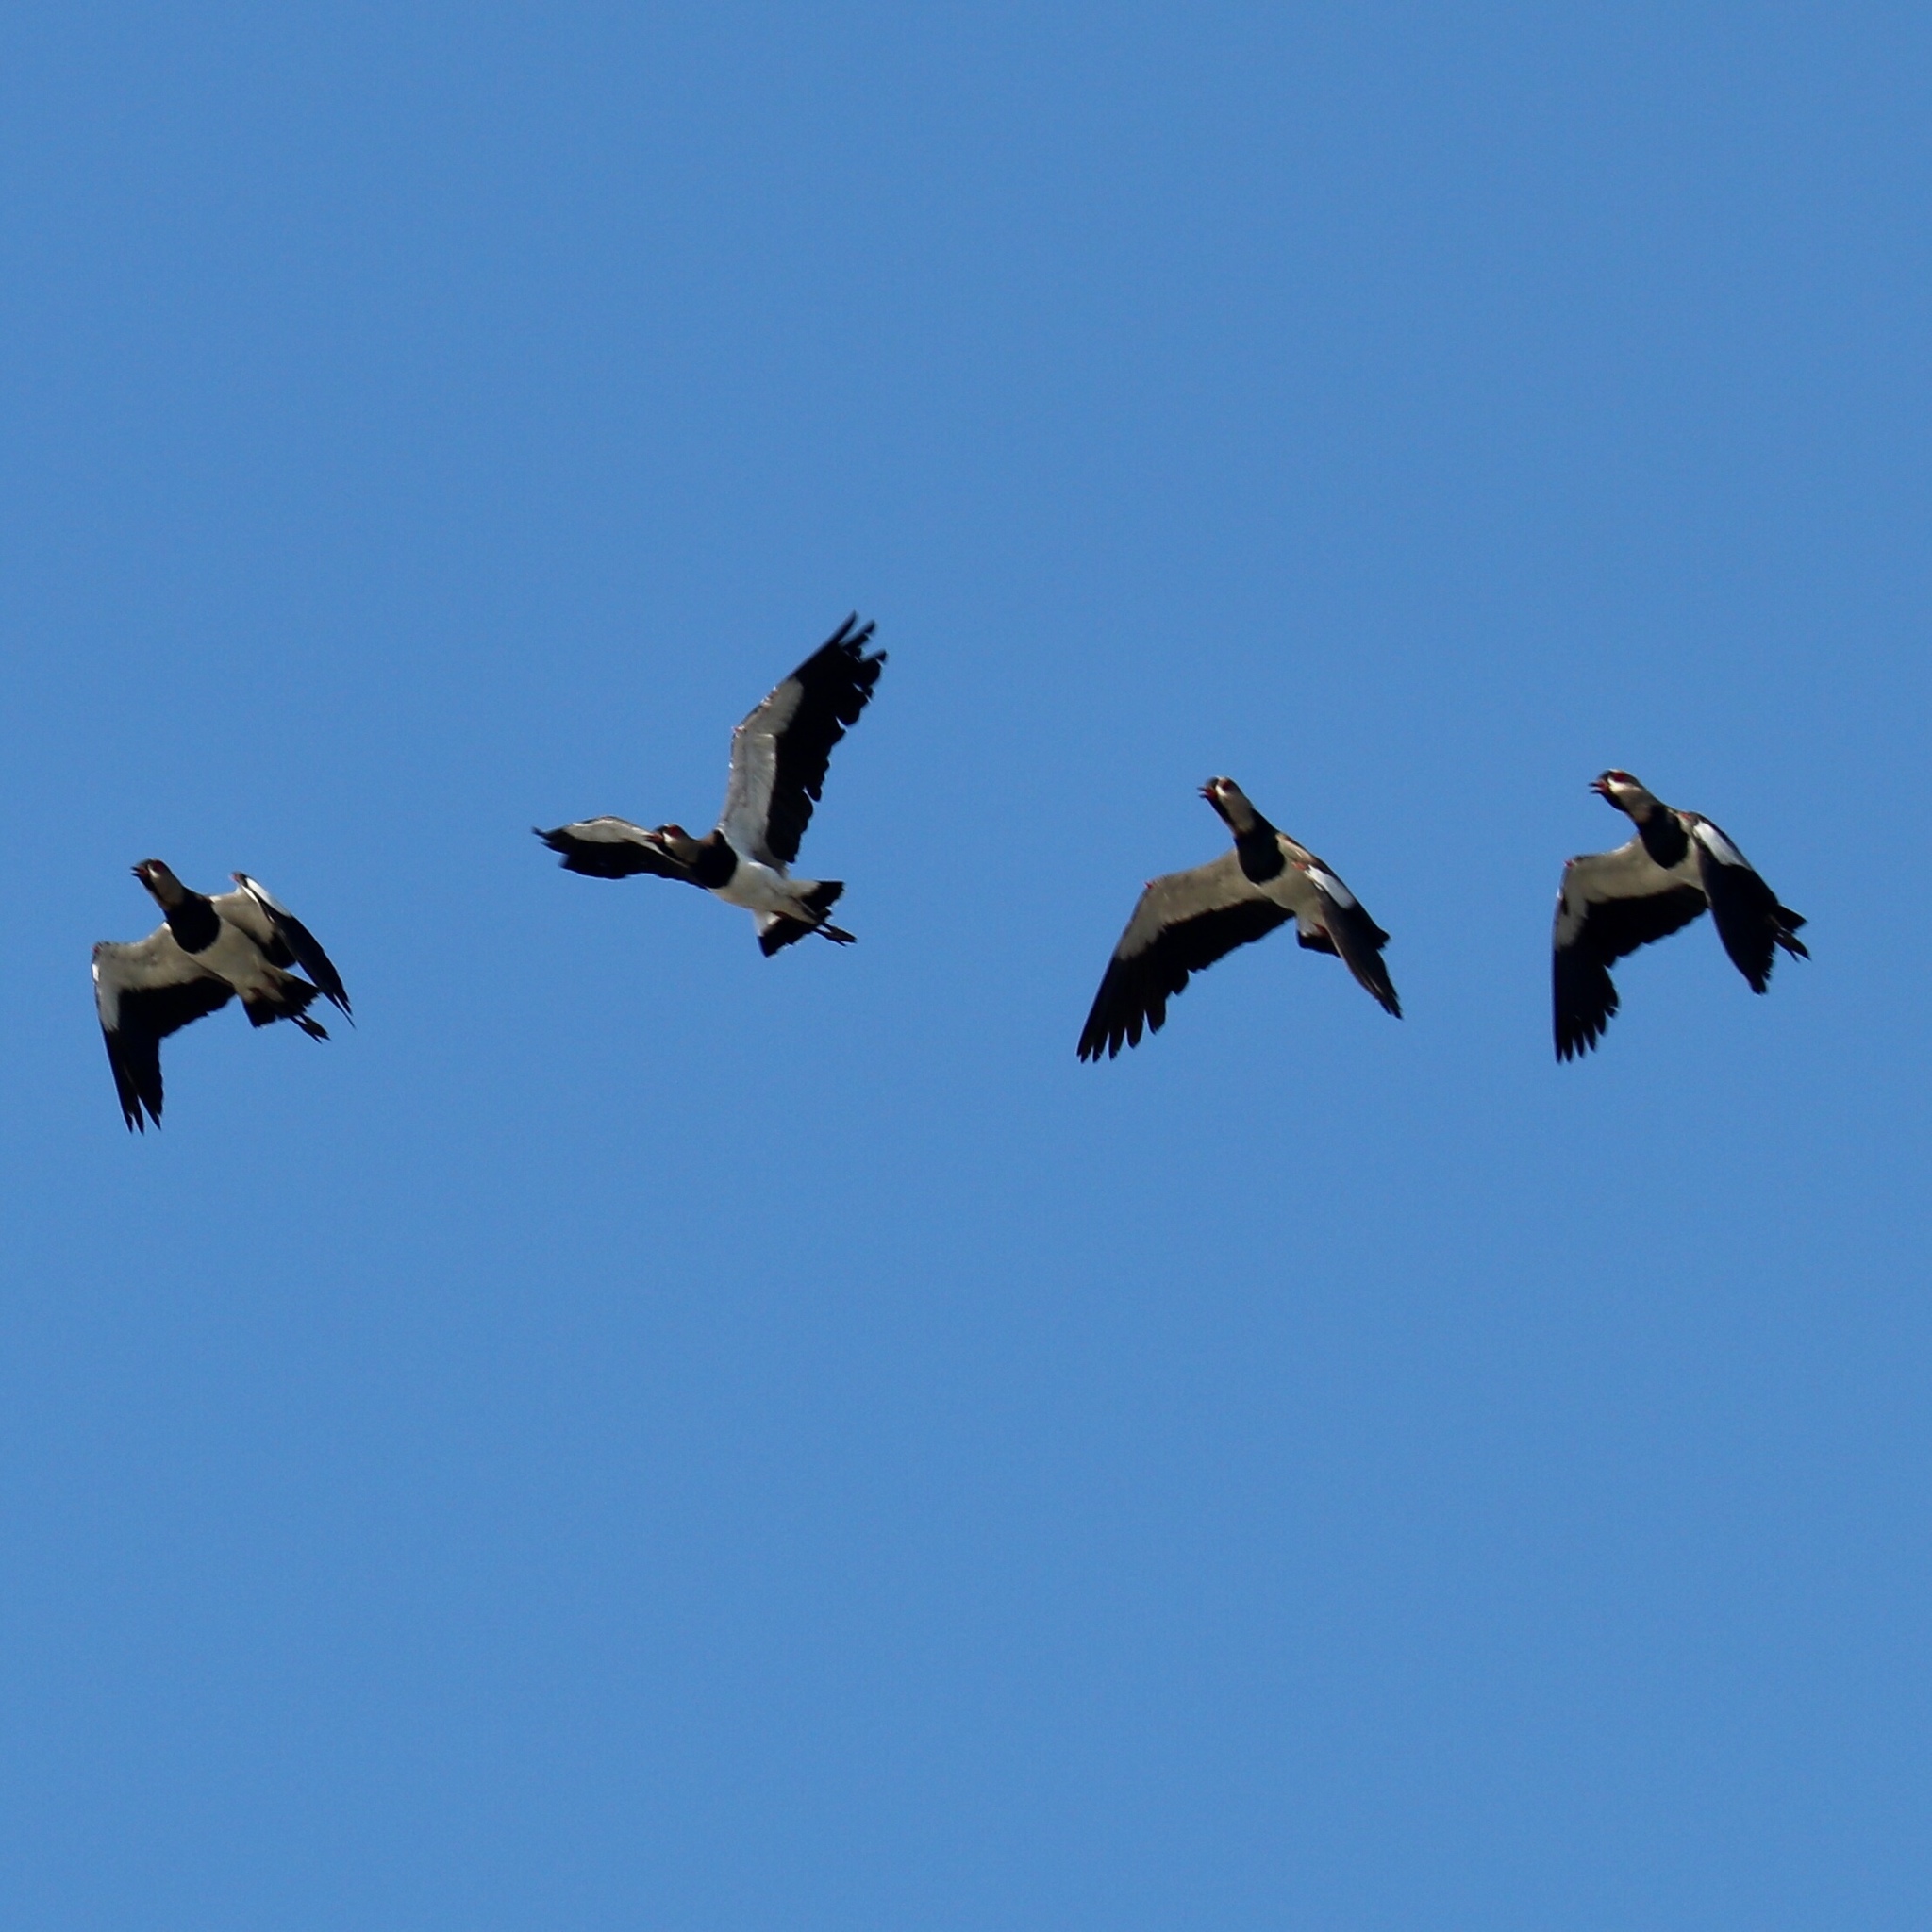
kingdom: Animalia
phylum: Chordata
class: Aves
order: Charadriiformes
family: Charadriidae
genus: Vanellus
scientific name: Vanellus chilensis
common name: Southern lapwing
